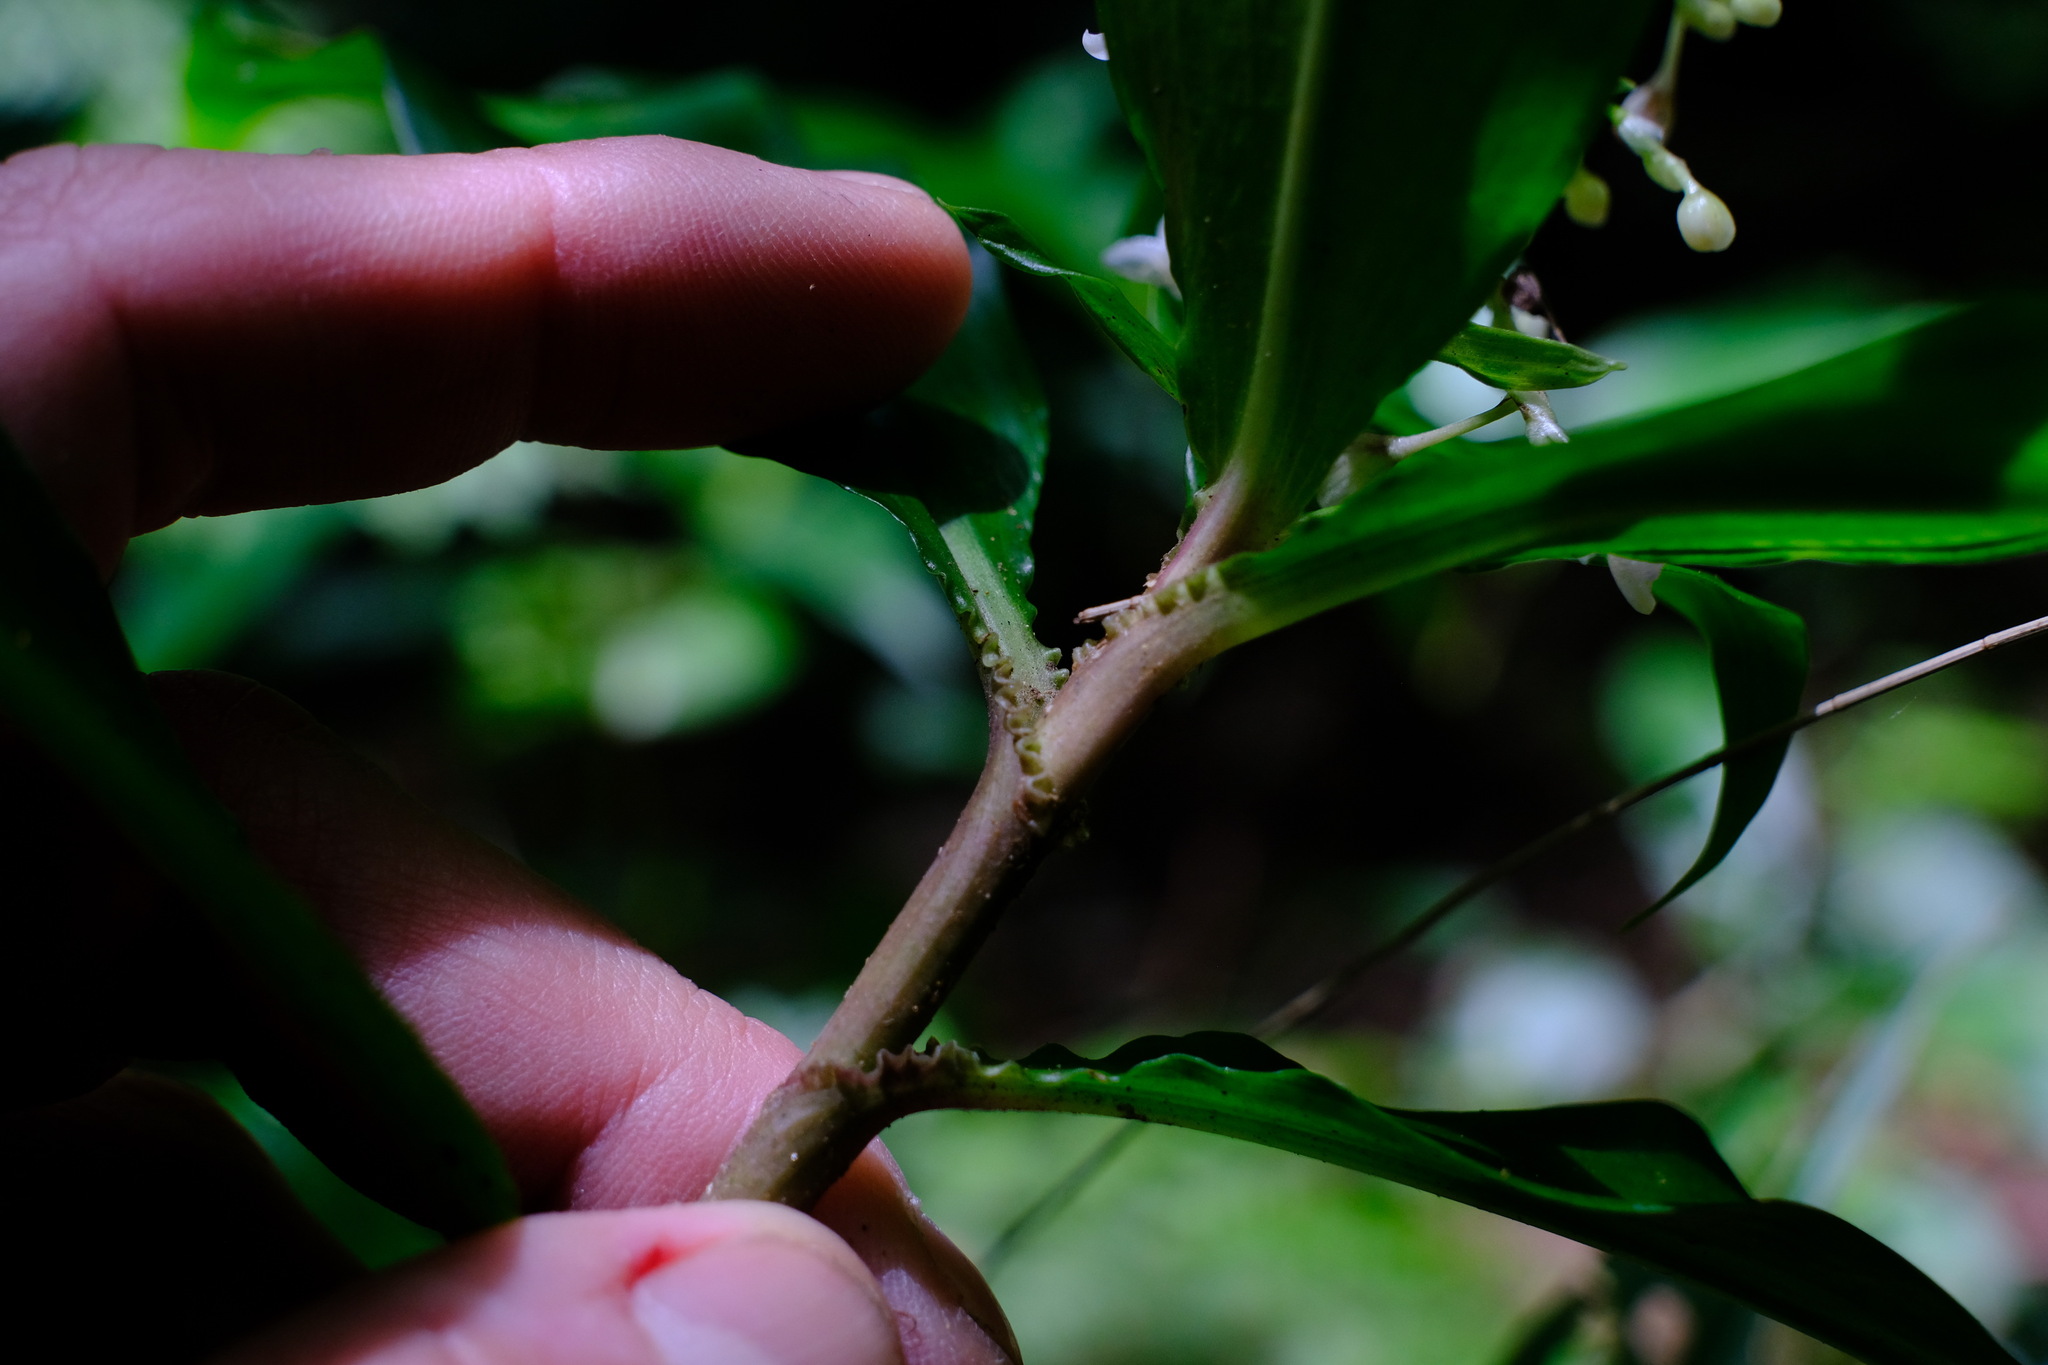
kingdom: Plantae
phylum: Tracheophyta
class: Liliopsida
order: Commelinales
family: Commelinaceae
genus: Pollia
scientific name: Pollia crispata
